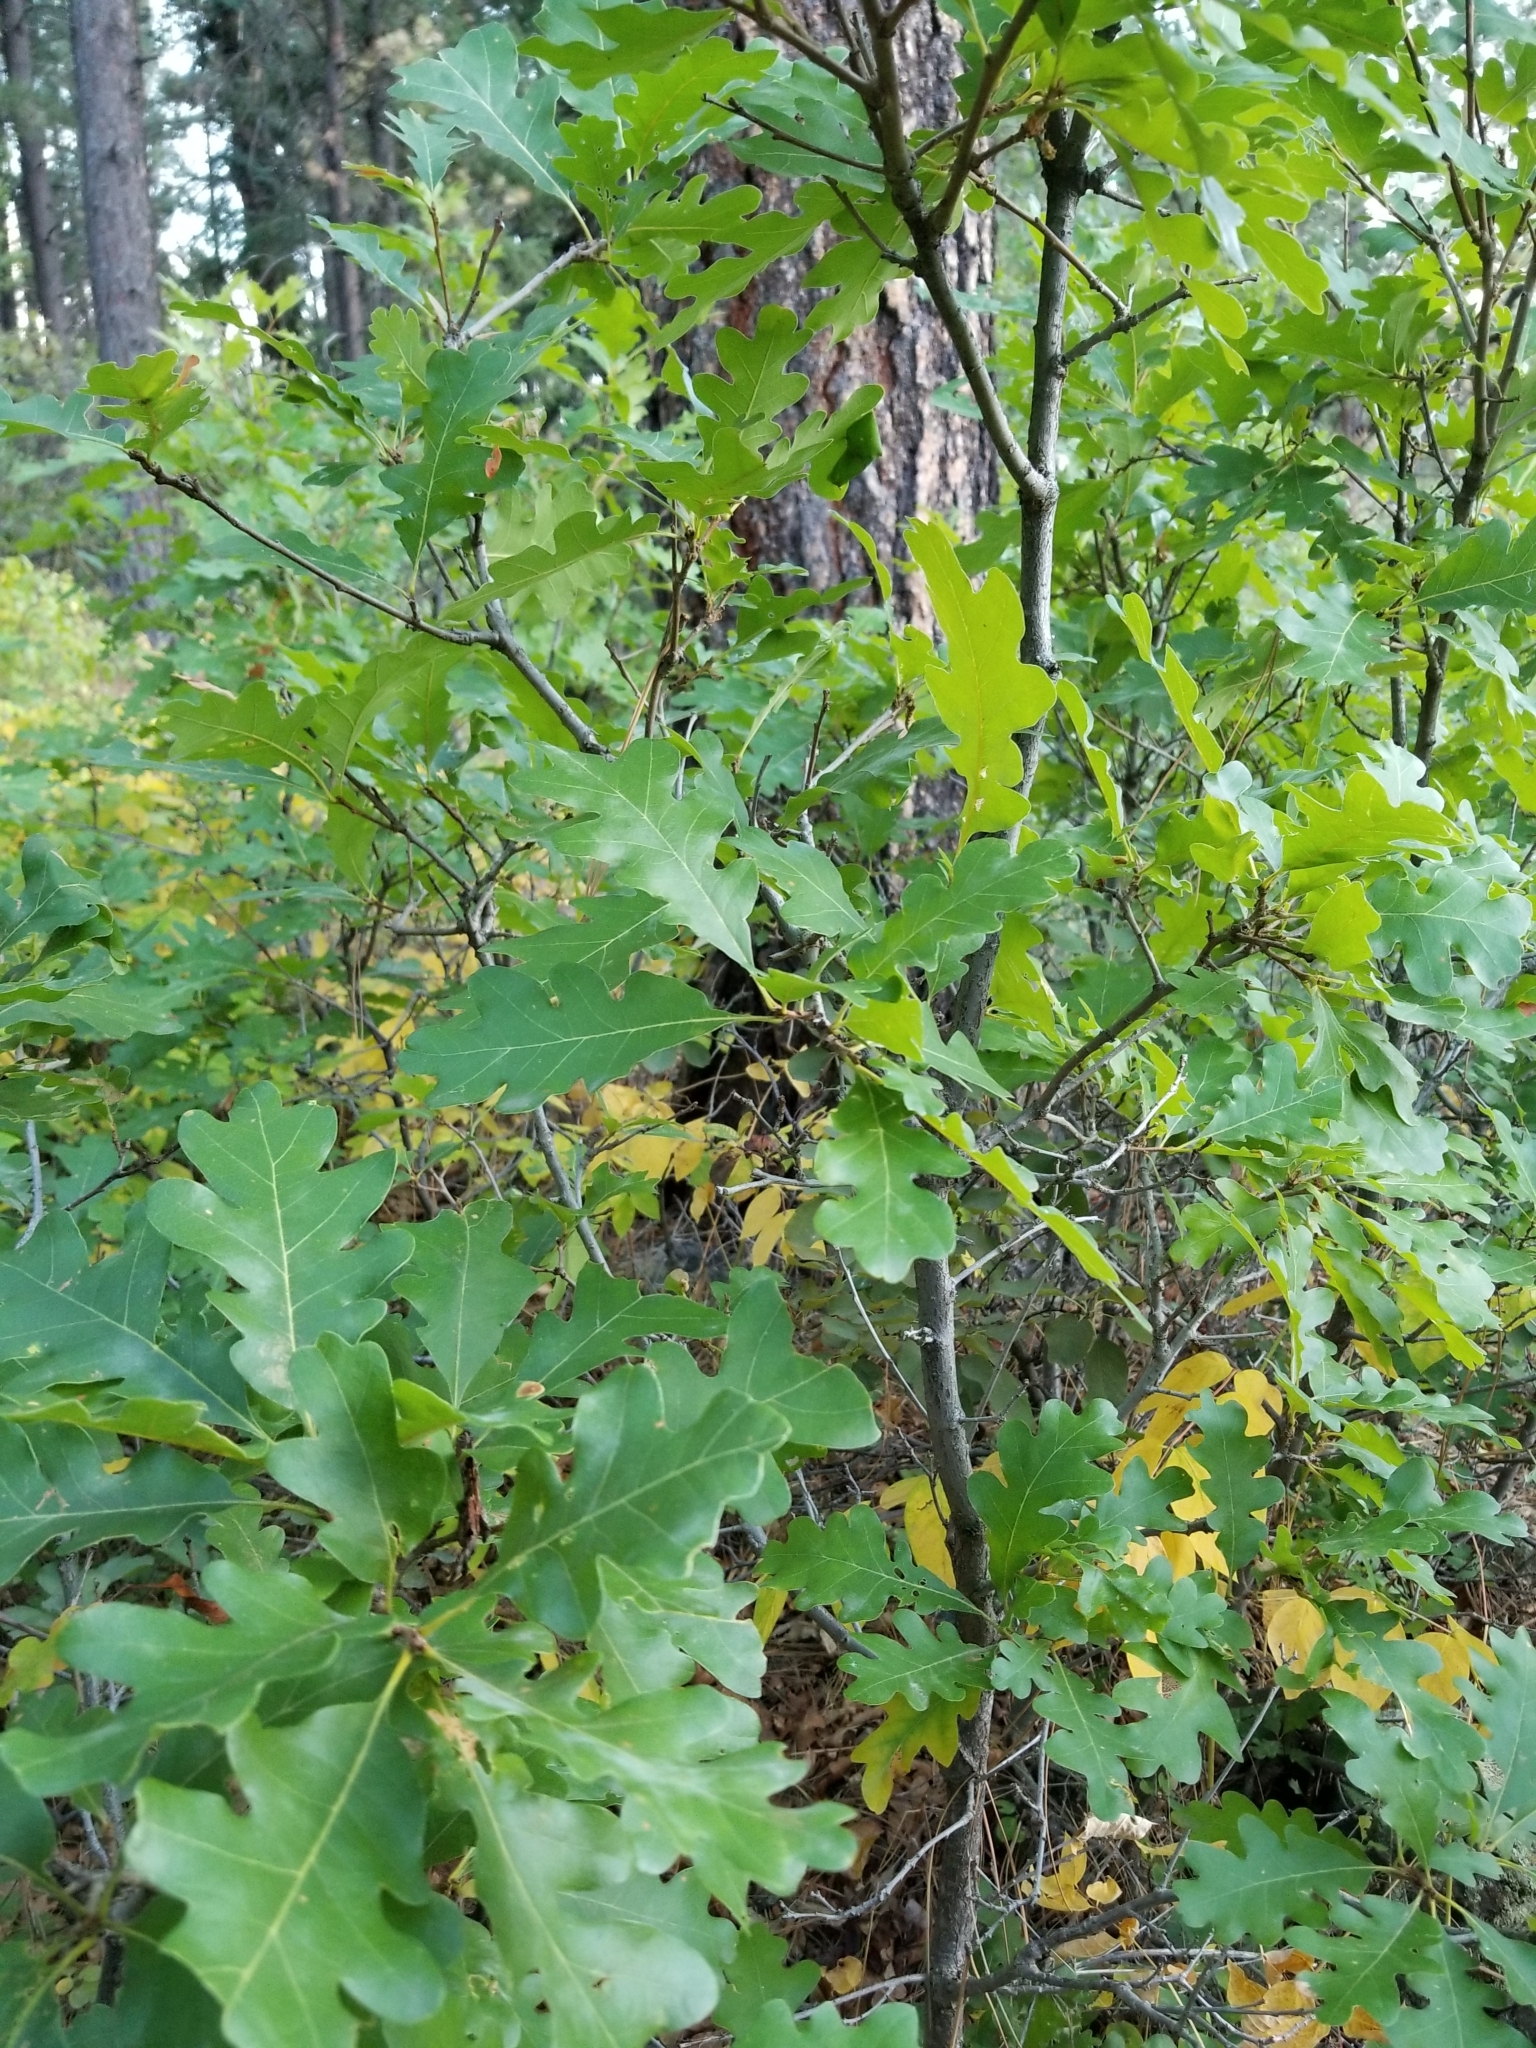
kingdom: Plantae
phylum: Tracheophyta
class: Magnoliopsida
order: Fagales
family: Fagaceae
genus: Quercus
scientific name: Quercus gambelii
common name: Gambel oak
